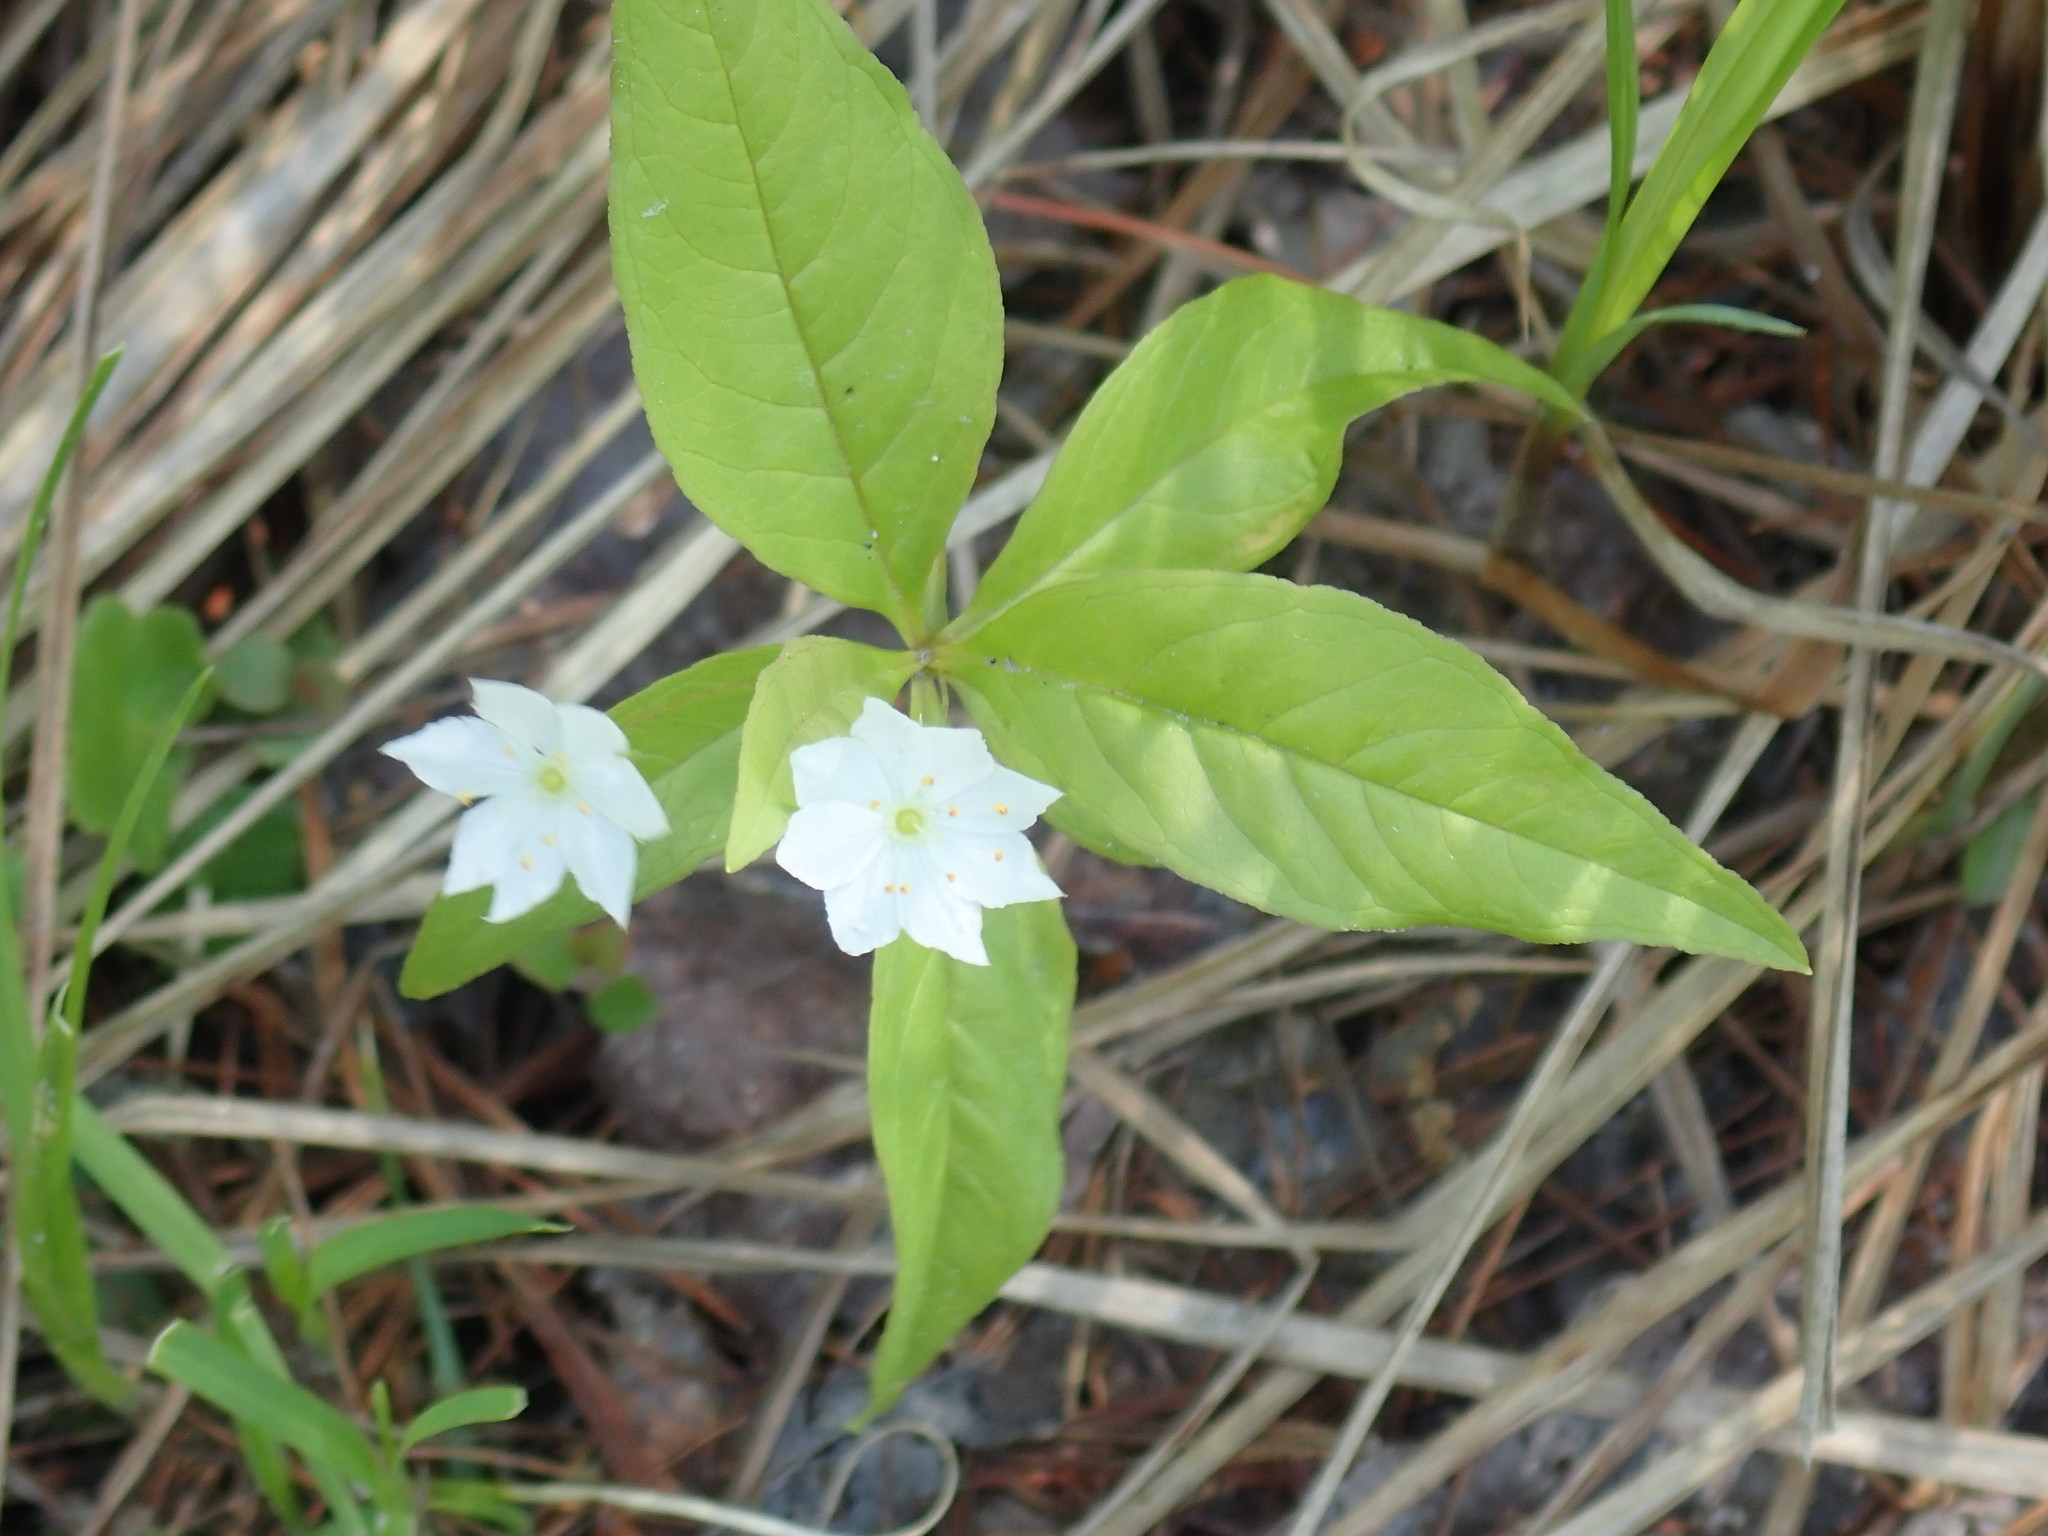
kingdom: Plantae
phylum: Tracheophyta
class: Magnoliopsida
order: Ericales
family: Primulaceae
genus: Lysimachia
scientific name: Lysimachia borealis
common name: American starflower
